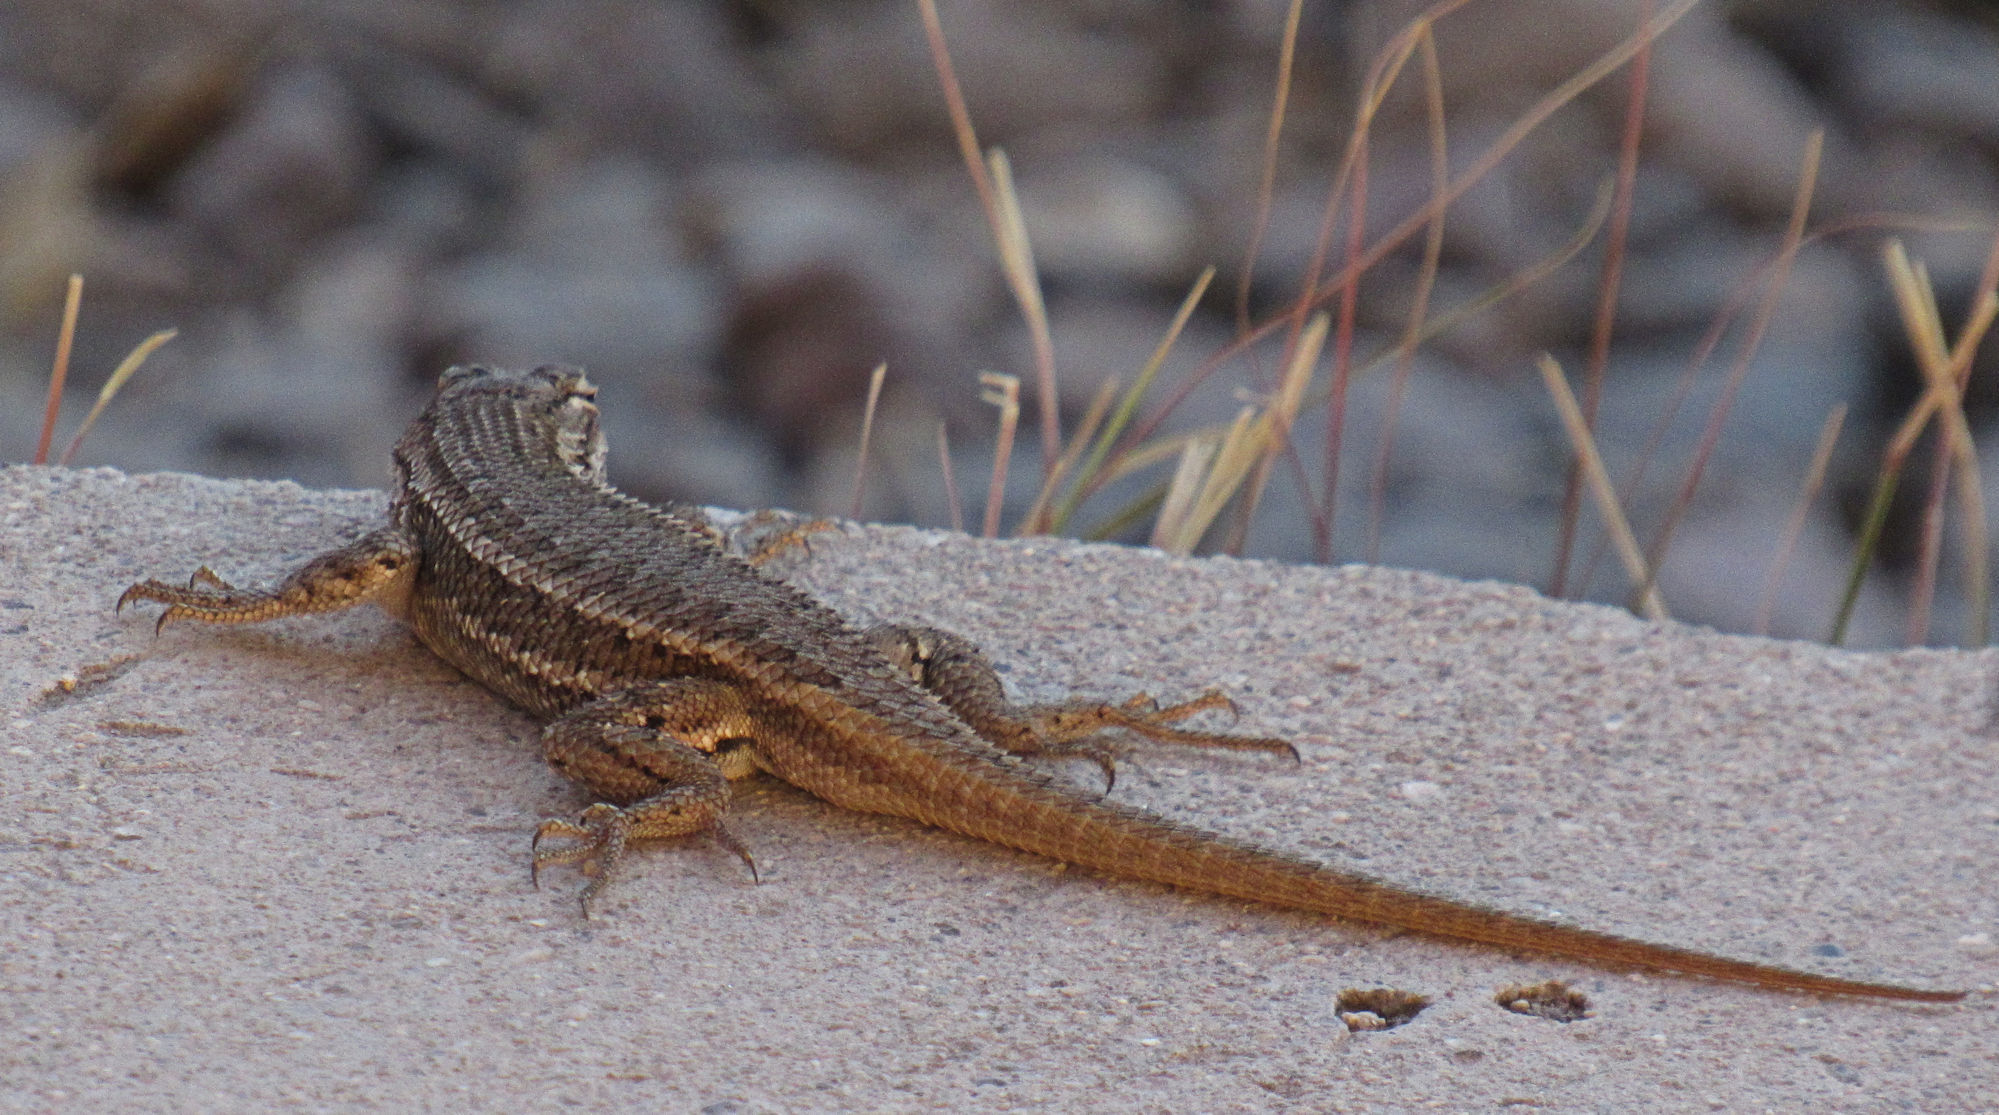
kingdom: Animalia
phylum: Chordata
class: Squamata
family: Phrynosomatidae
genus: Sceloporus
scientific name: Sceloporus cowlesi
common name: White sands prairie lizard
